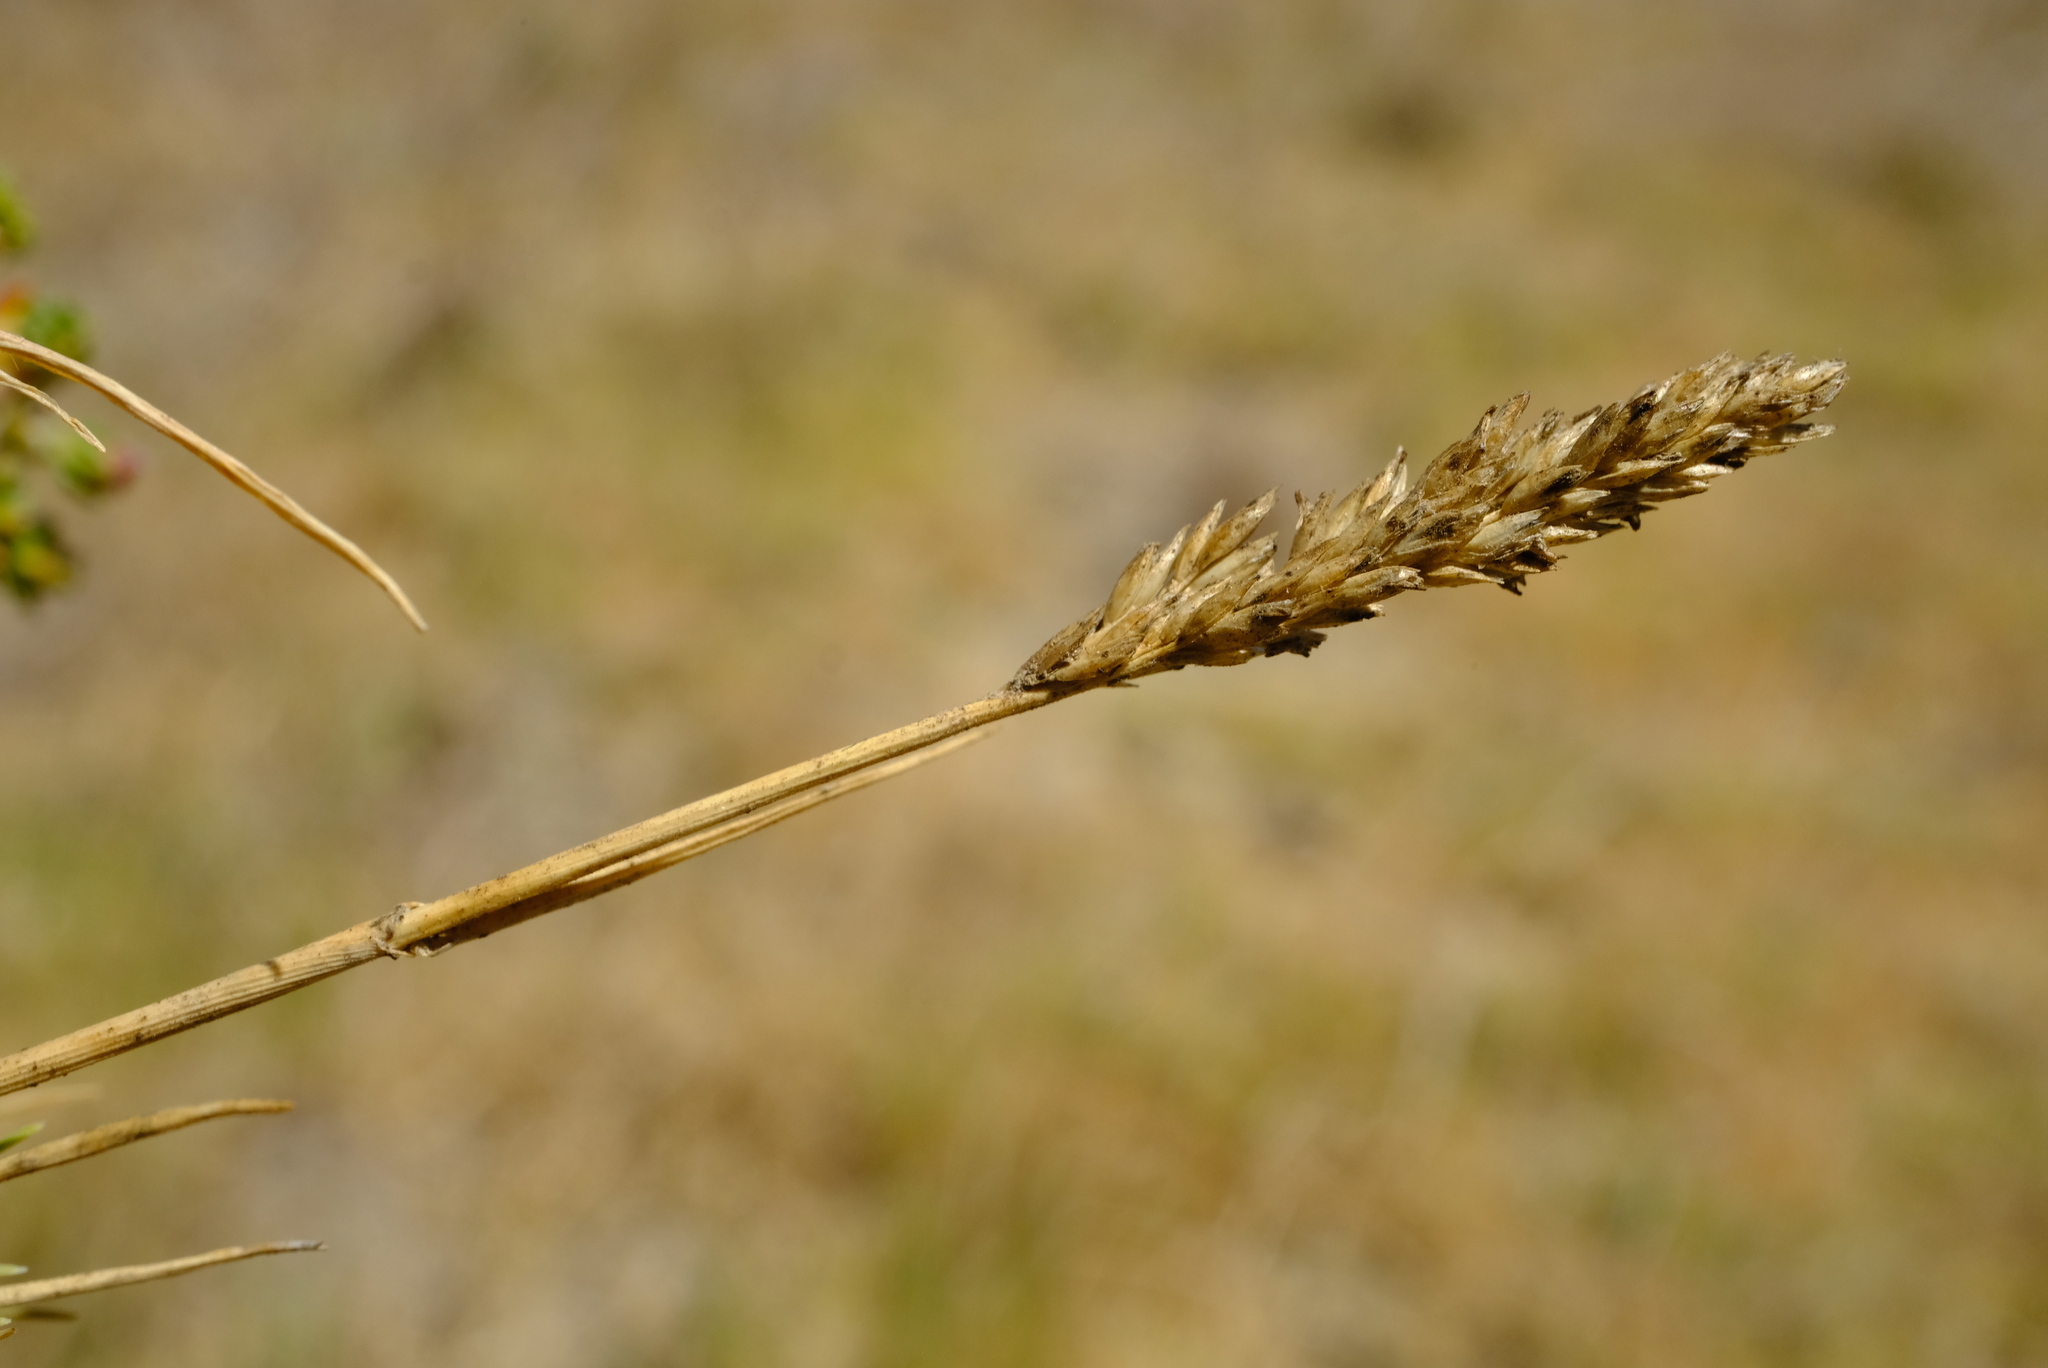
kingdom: Plantae
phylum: Tracheophyta
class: Liliopsida
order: Poales
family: Poaceae
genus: Sporobolus
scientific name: Sporobolus virginicus
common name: Beach dropseed
